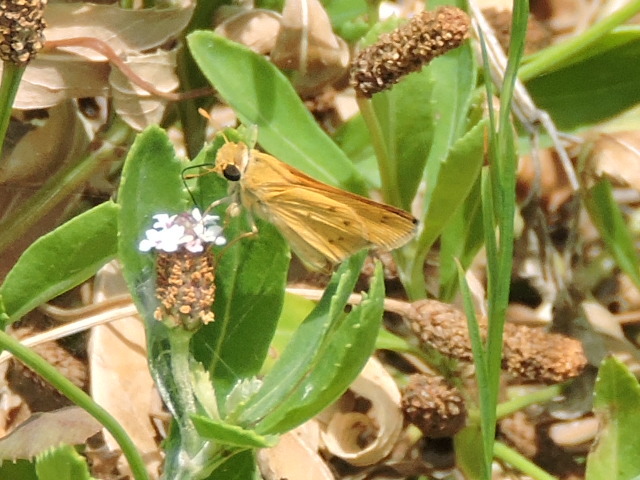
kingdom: Animalia
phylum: Arthropoda
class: Insecta
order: Lepidoptera
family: Hesperiidae
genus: Hylephila
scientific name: Hylephila phyleus
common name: Fiery skipper
